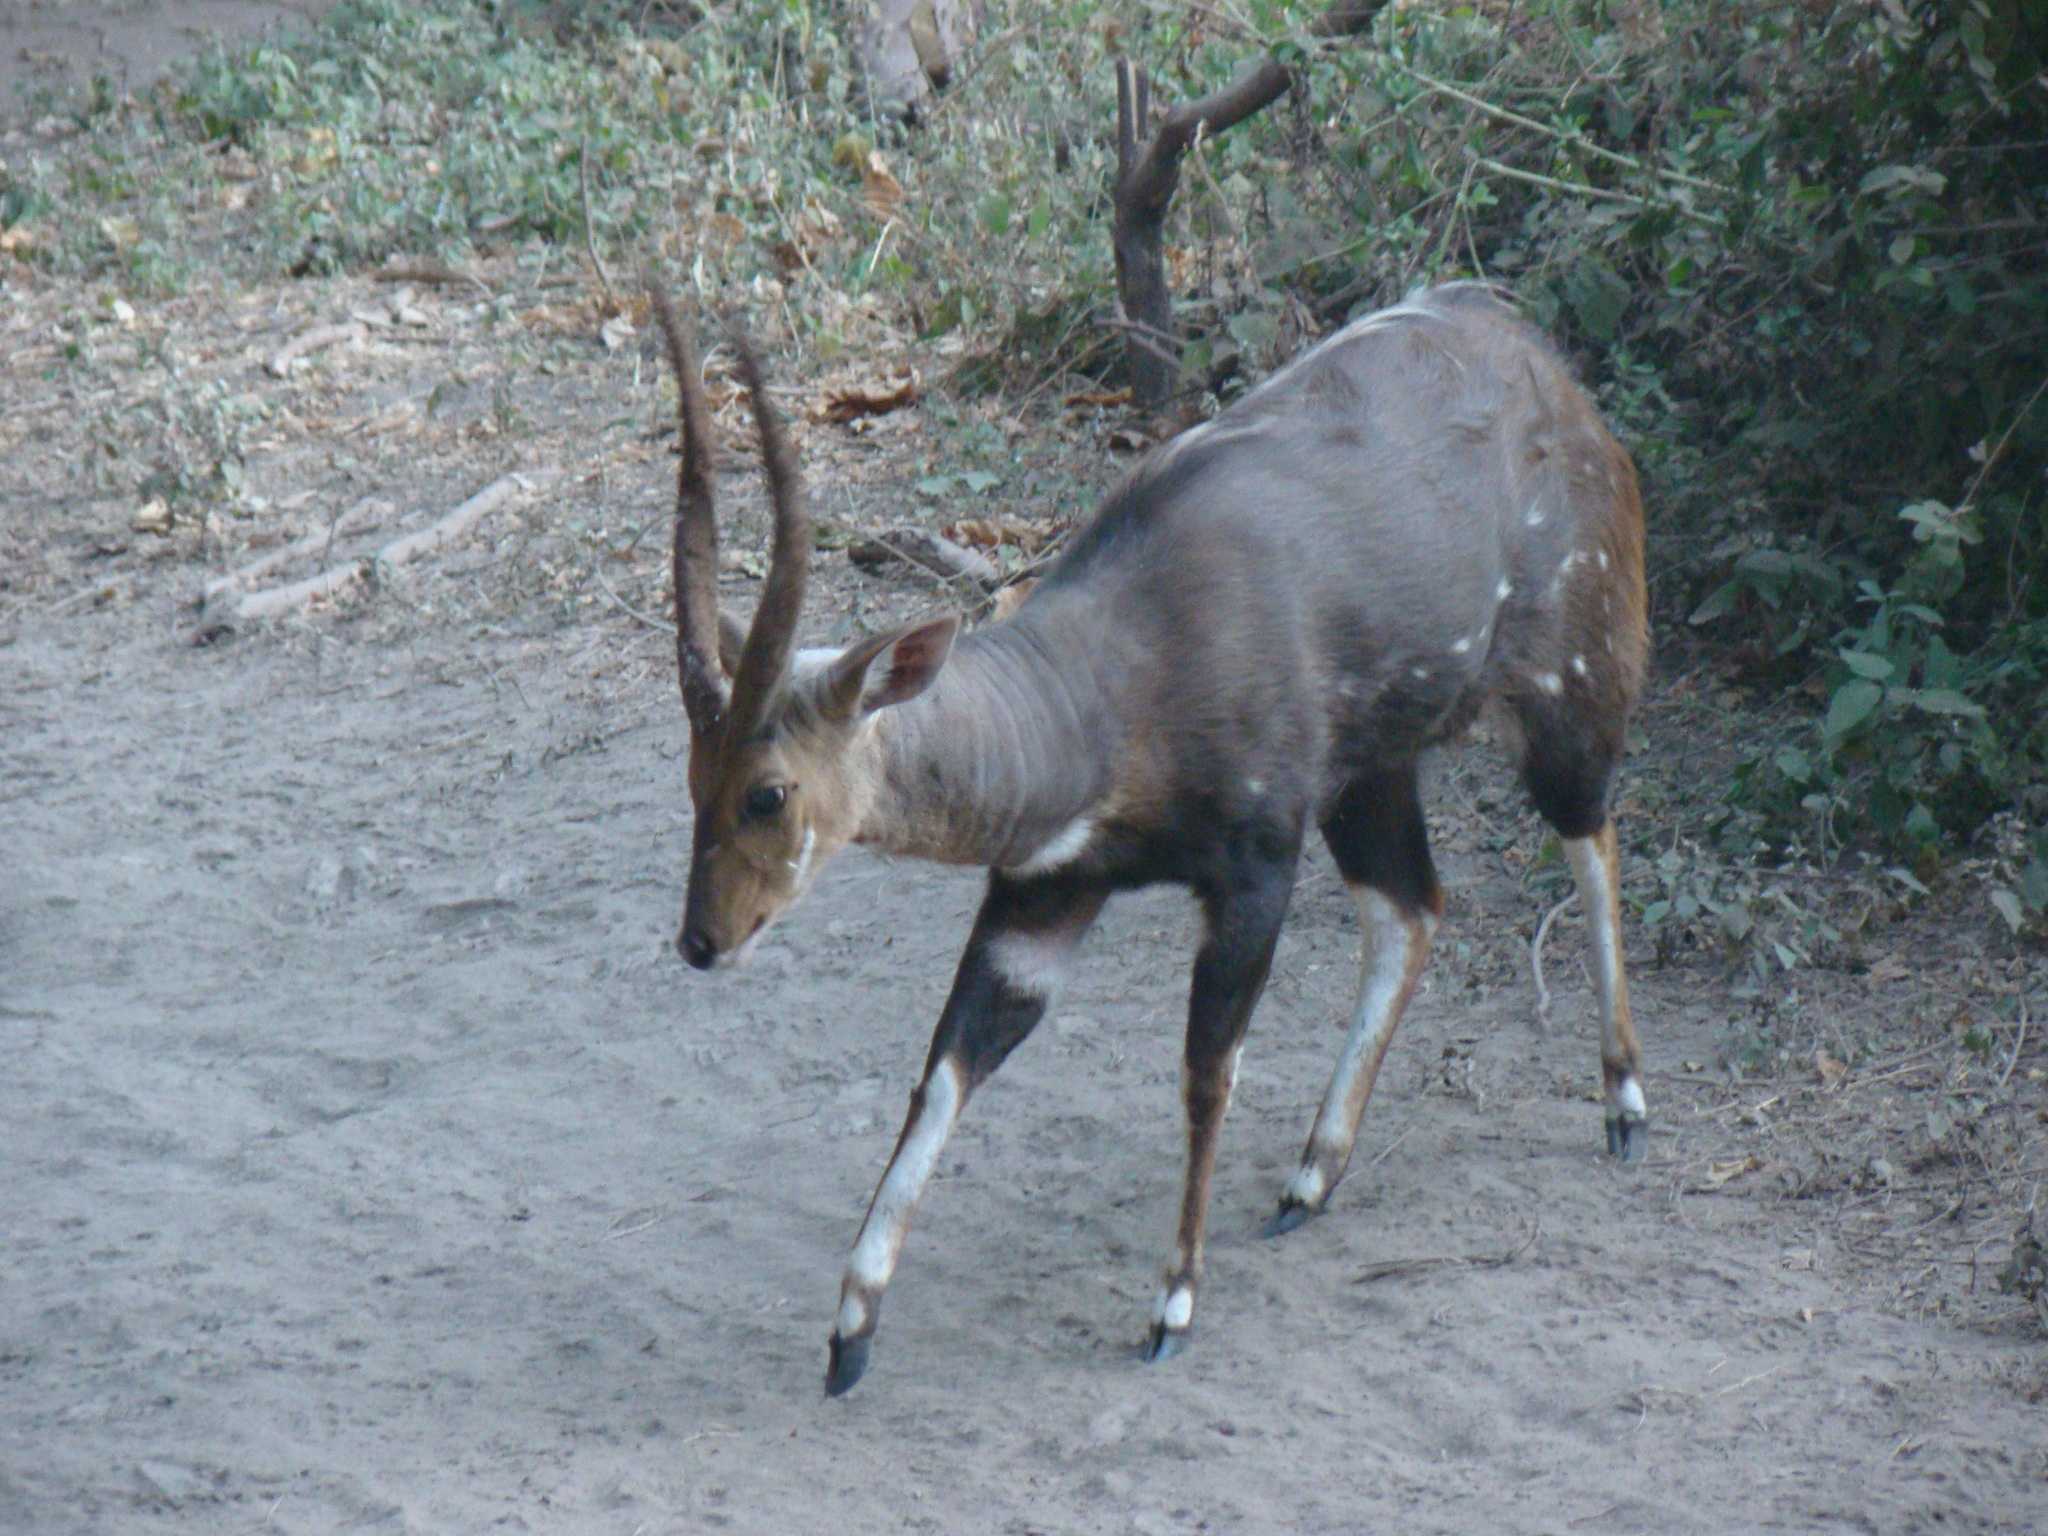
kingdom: Animalia
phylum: Chordata
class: Mammalia
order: Artiodactyla
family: Bovidae
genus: Tragelaphus
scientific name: Tragelaphus scriptus
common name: Bushbuck
